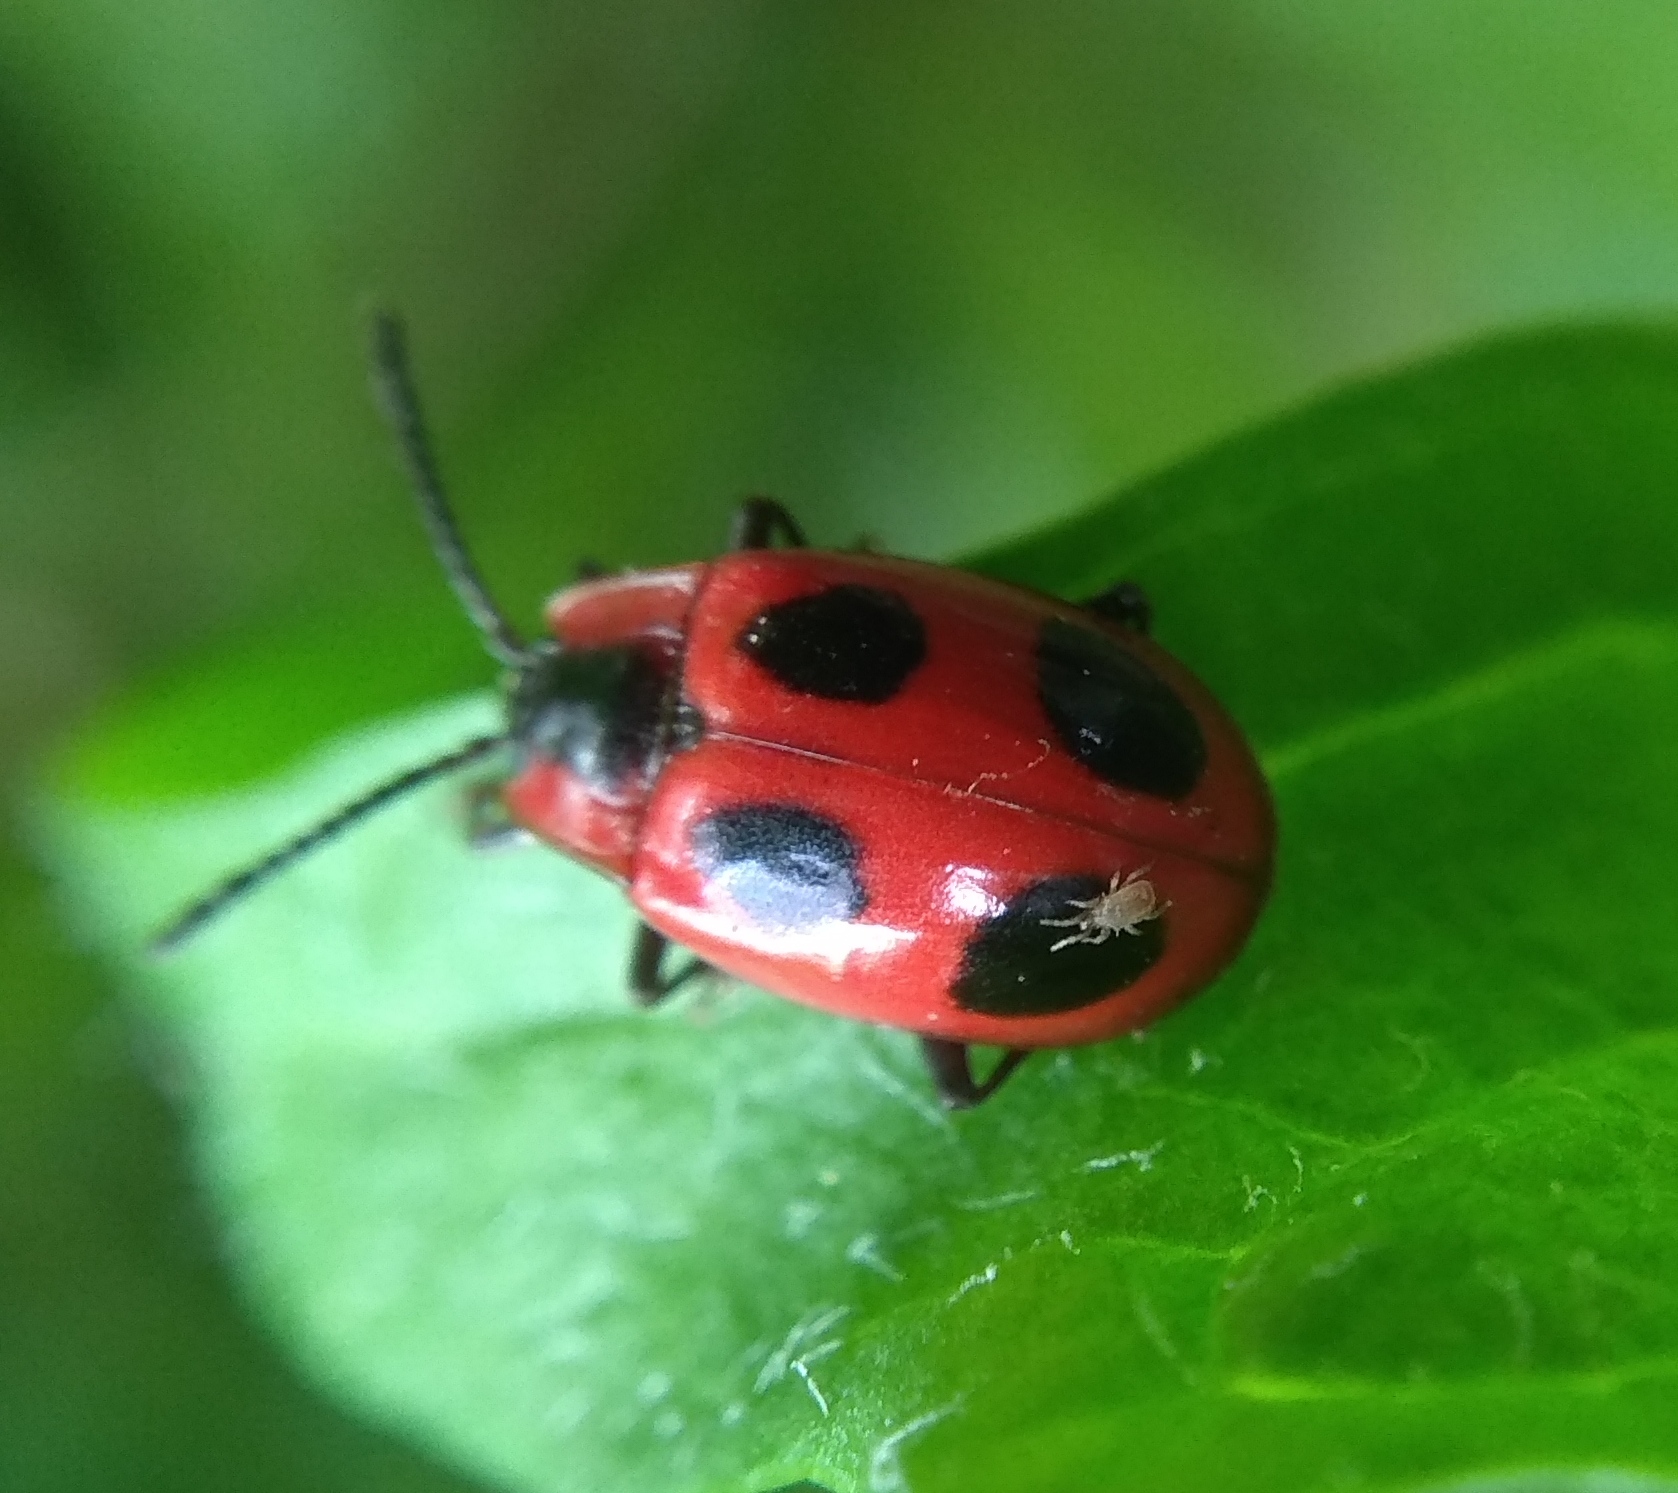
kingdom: Animalia
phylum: Arthropoda
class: Insecta
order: Coleoptera
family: Endomychidae
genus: Endomychus
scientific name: Endomychus coccineus
